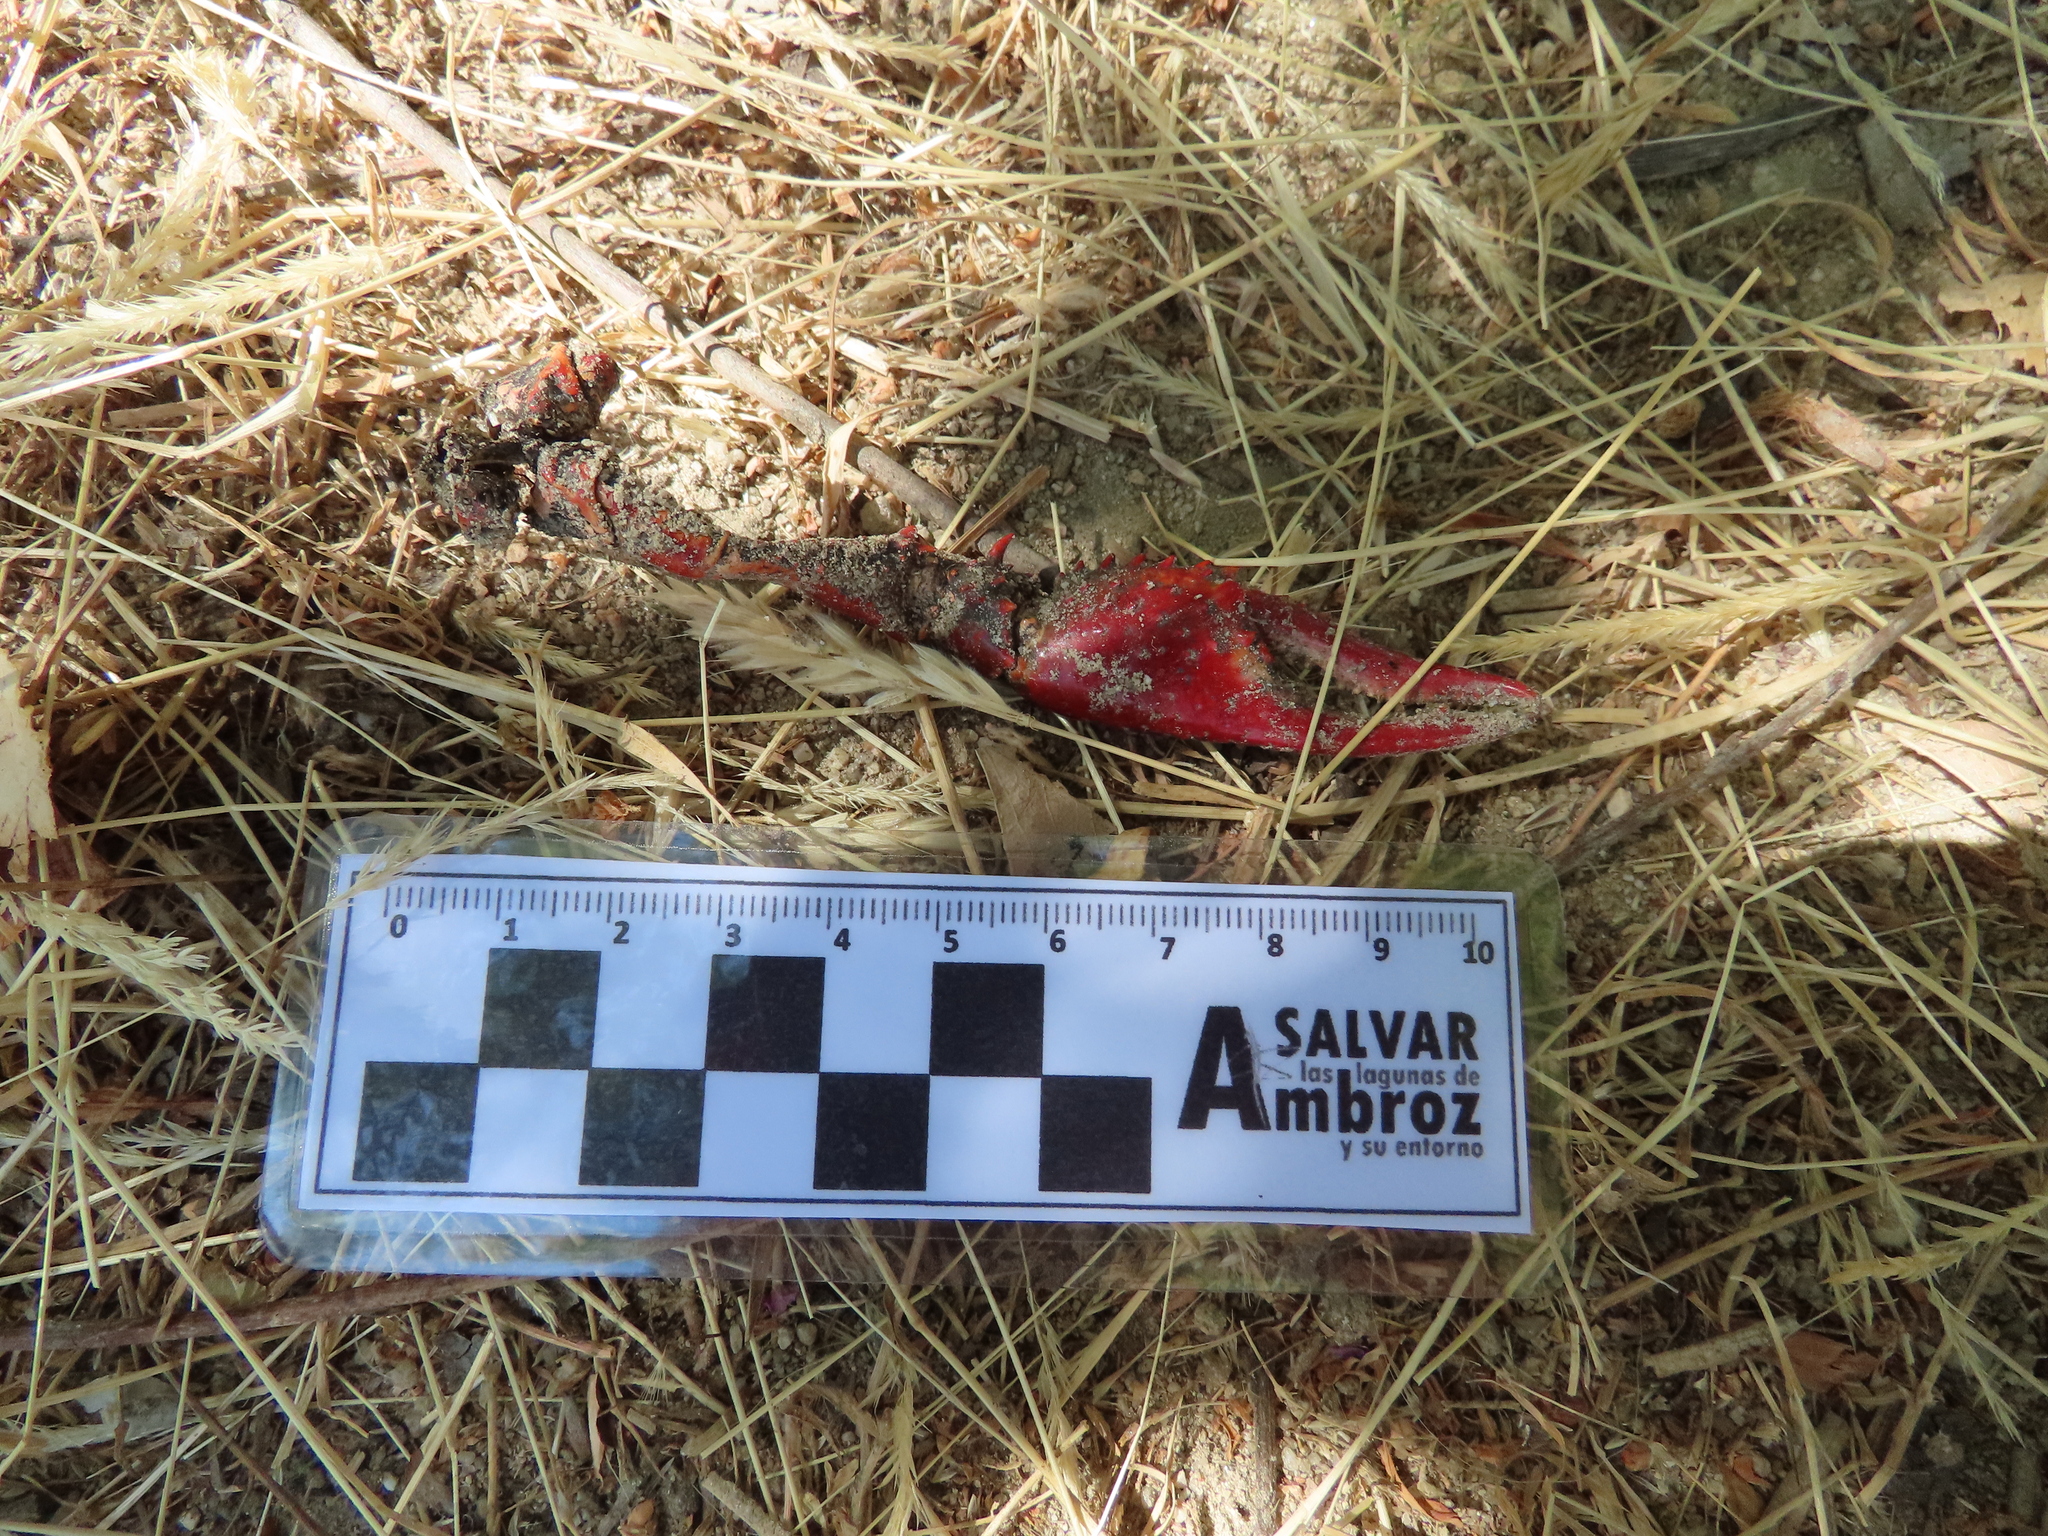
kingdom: Animalia
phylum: Arthropoda
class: Malacostraca
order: Decapoda
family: Cambaridae
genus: Procambarus
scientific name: Procambarus clarkii
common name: Red swamp crayfish
